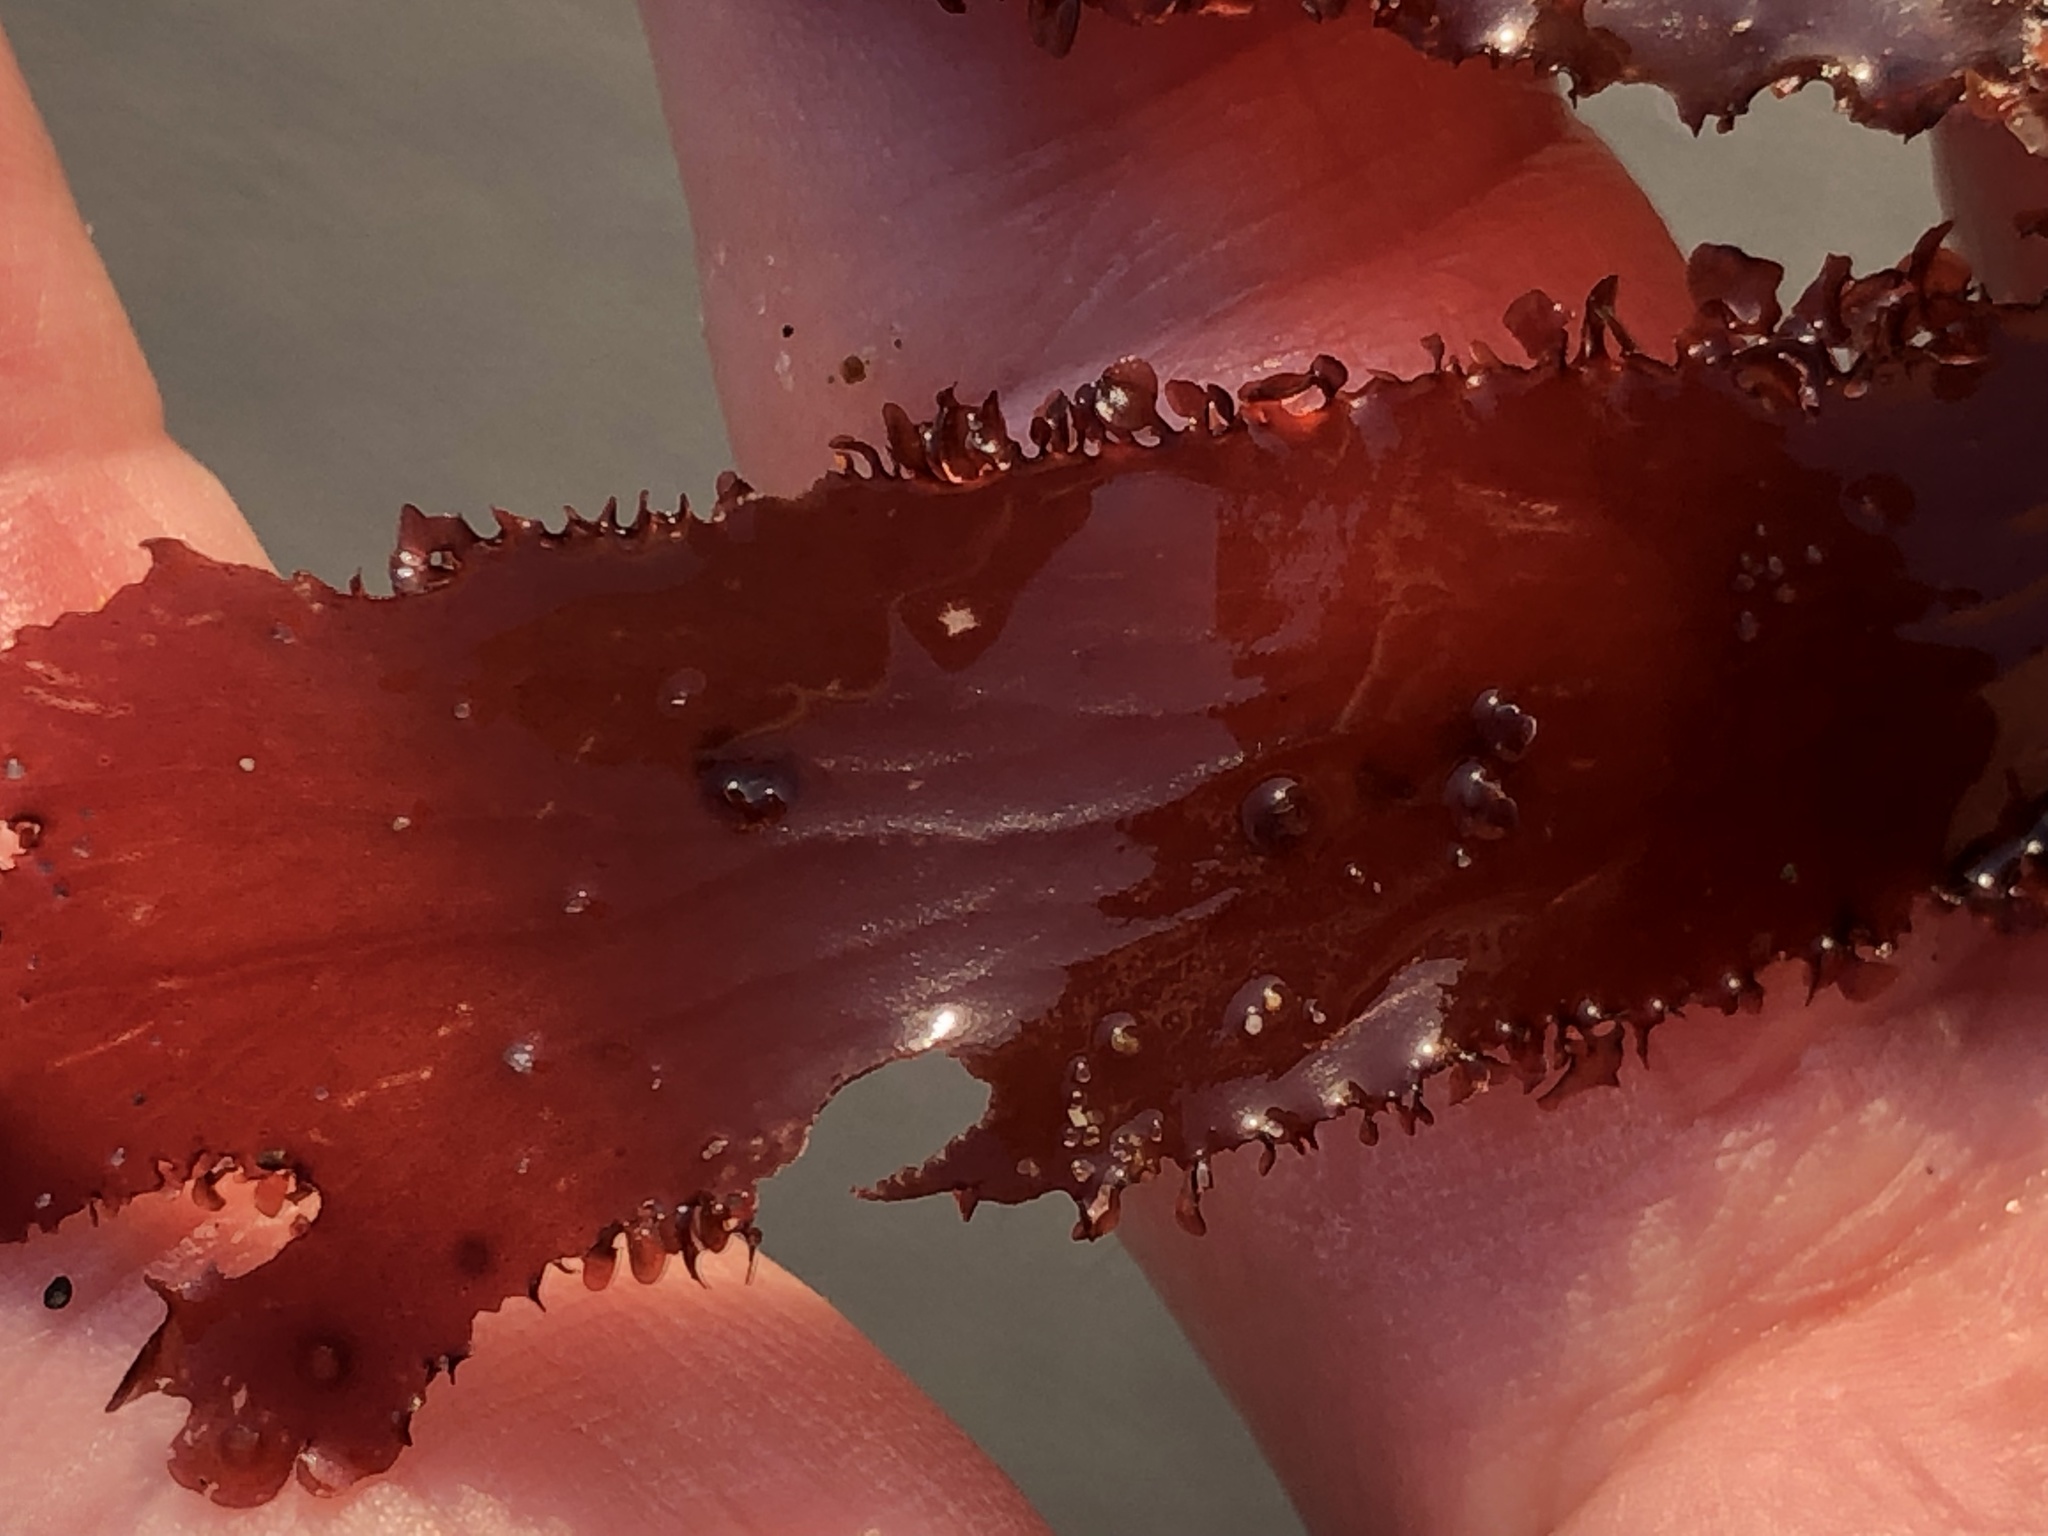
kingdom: Plantae
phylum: Rhodophyta
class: Florideophyceae
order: Ceramiales
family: Delesseriaceae
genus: Cryptopleura
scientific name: Cryptopleura ruprechtiana
